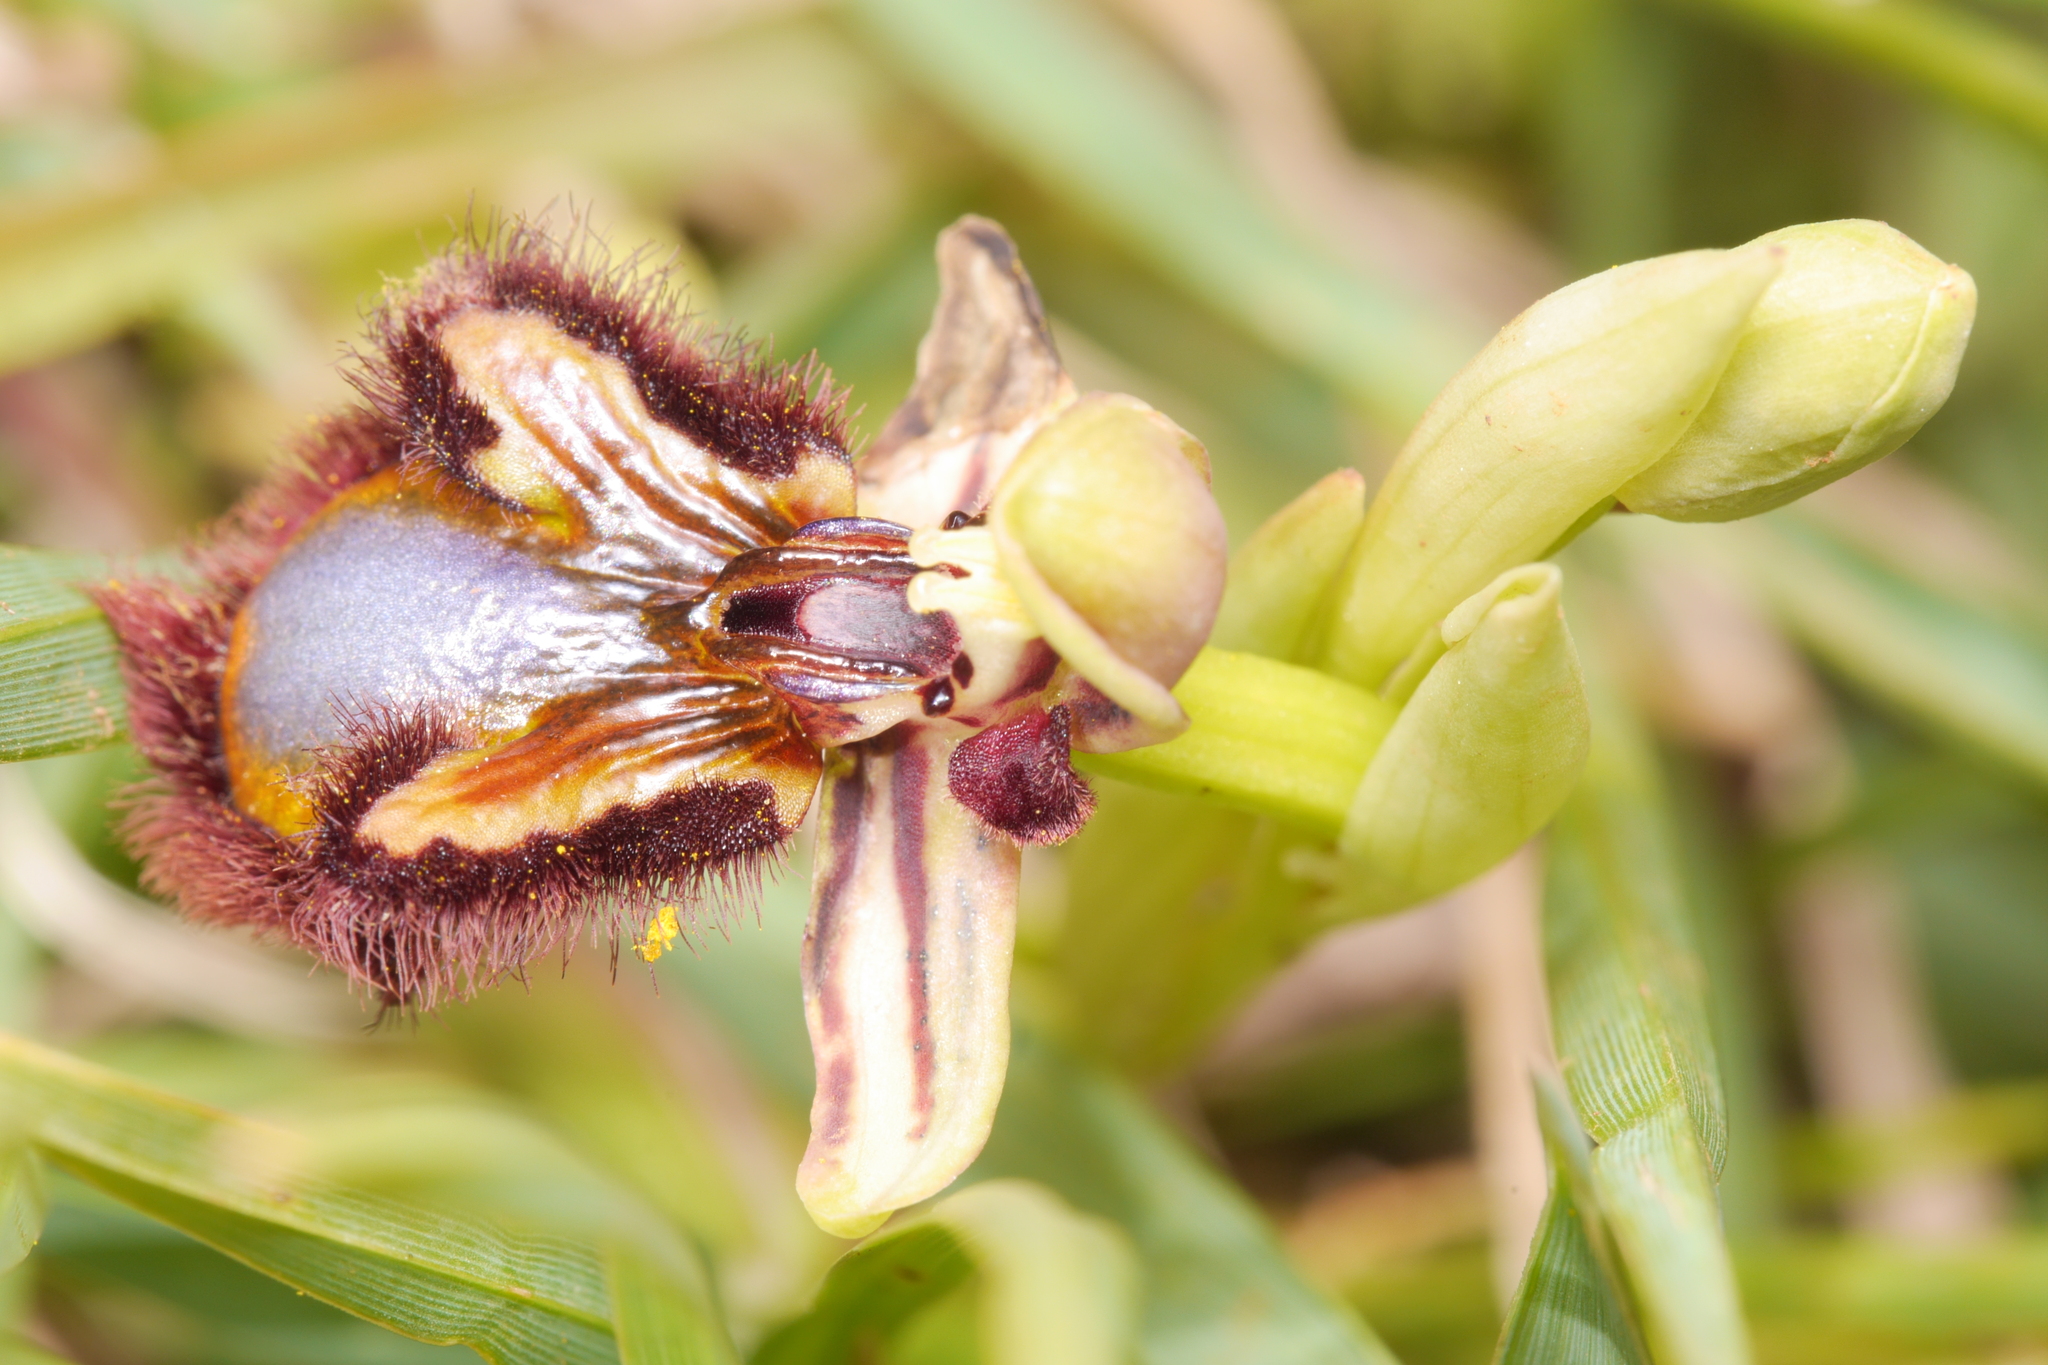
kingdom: Plantae
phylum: Tracheophyta
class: Liliopsida
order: Asparagales
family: Orchidaceae
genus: Ophrys
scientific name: Ophrys speculum
